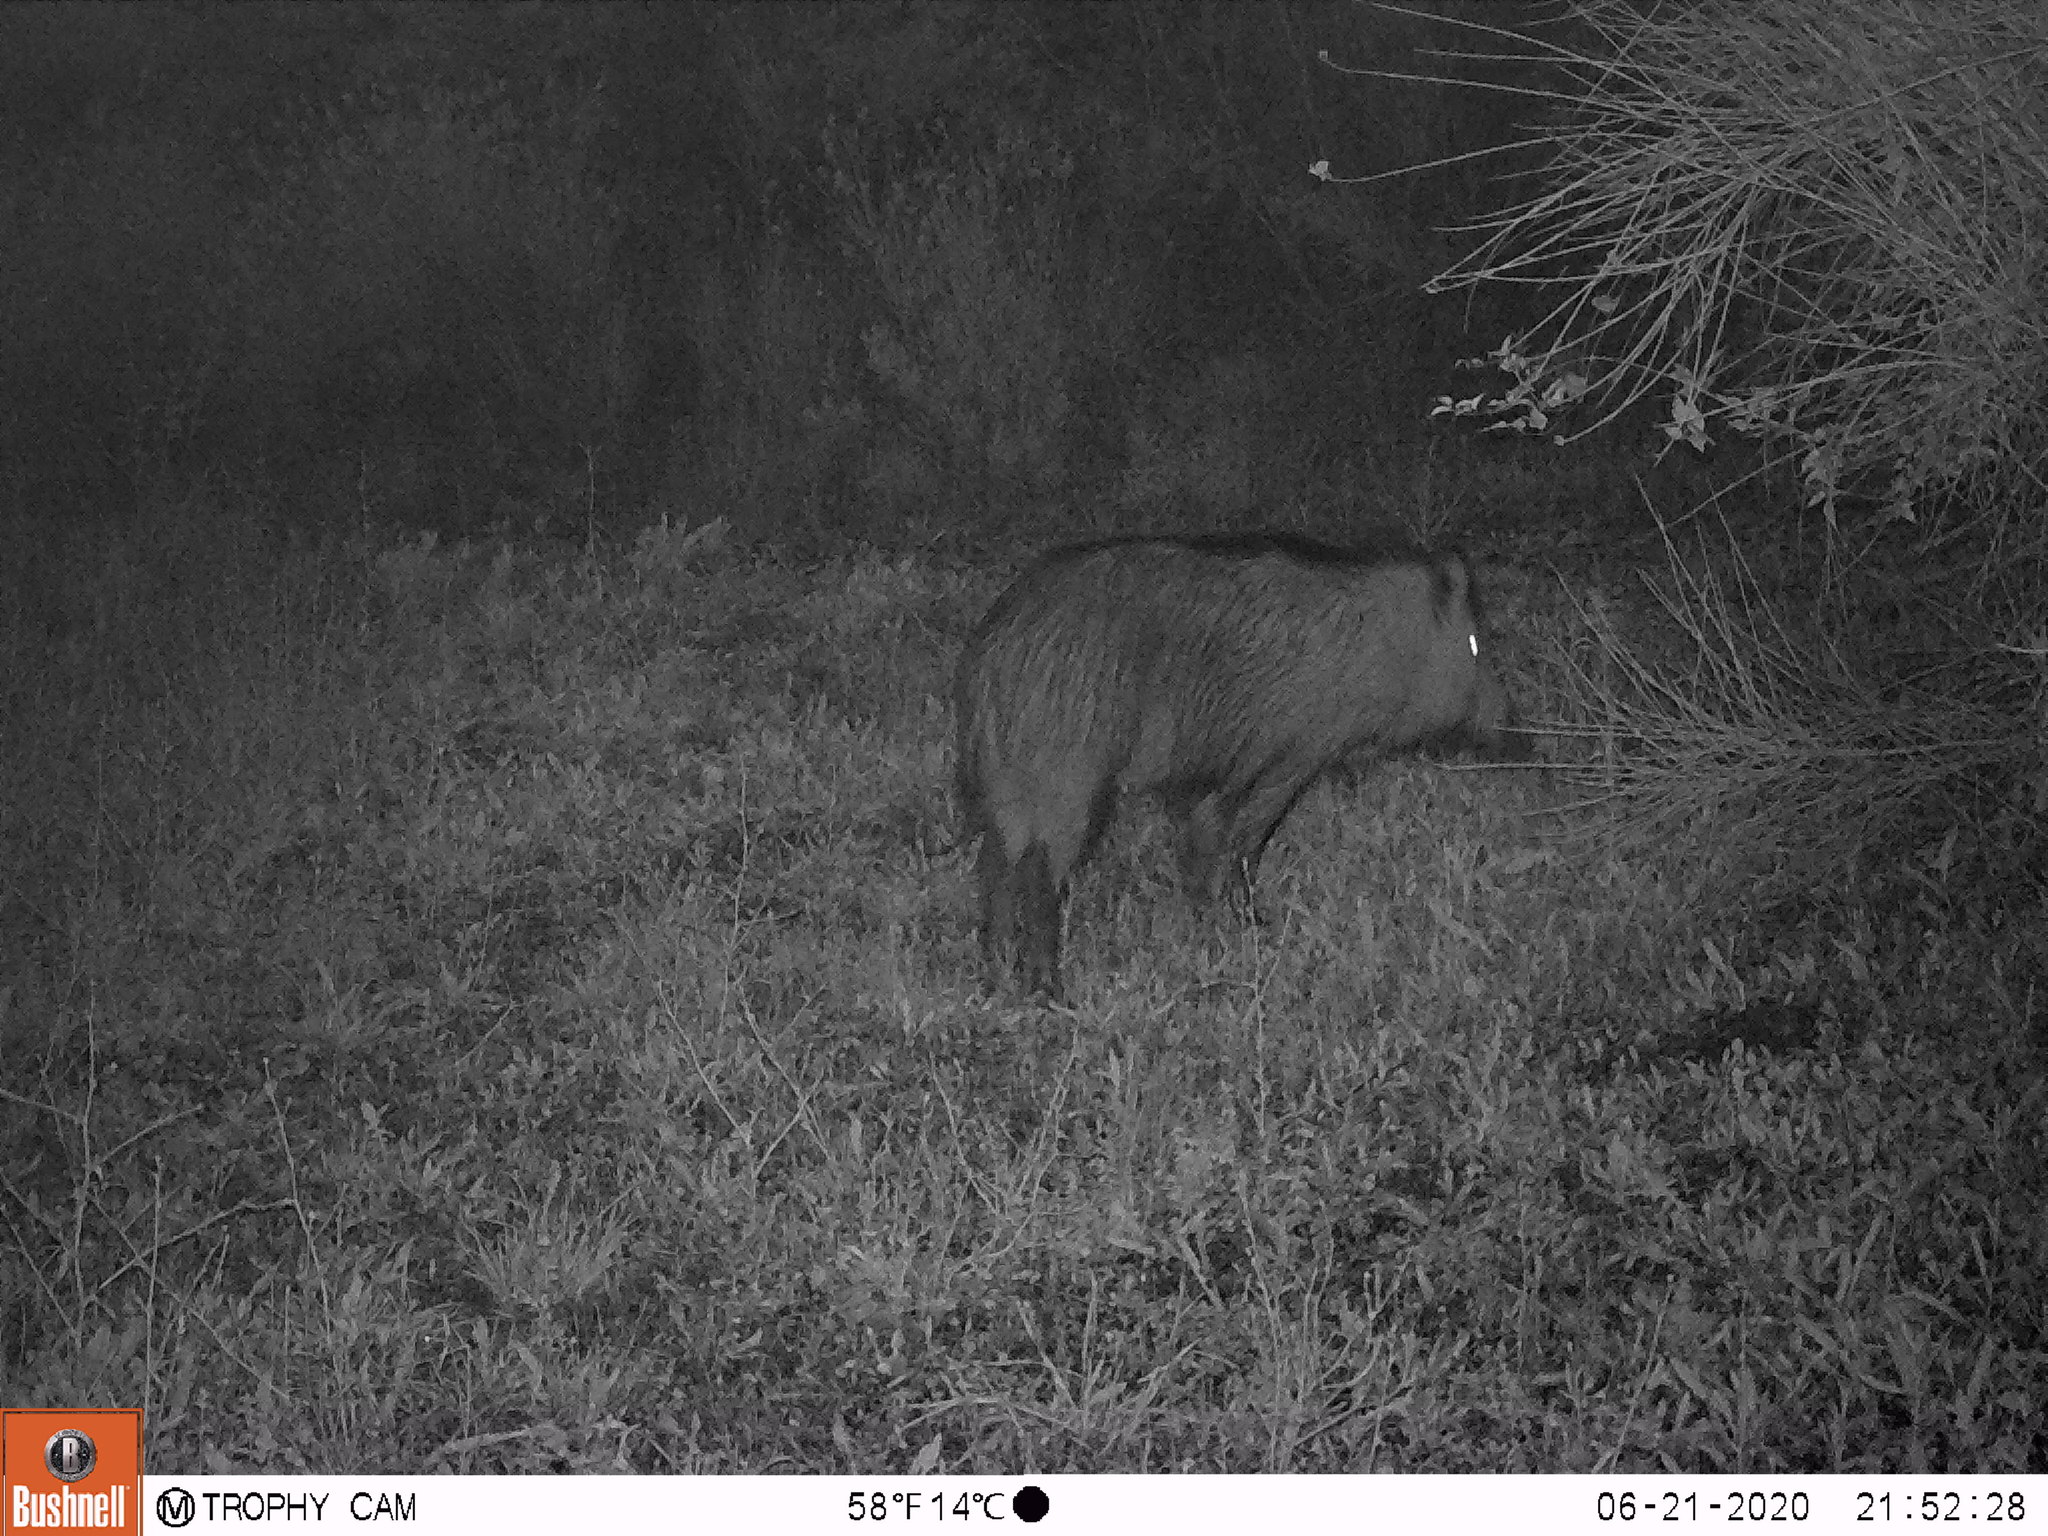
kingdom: Animalia
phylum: Chordata
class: Mammalia
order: Artiodactyla
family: Suidae
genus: Sus
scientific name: Sus scrofa
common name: Wild boar
